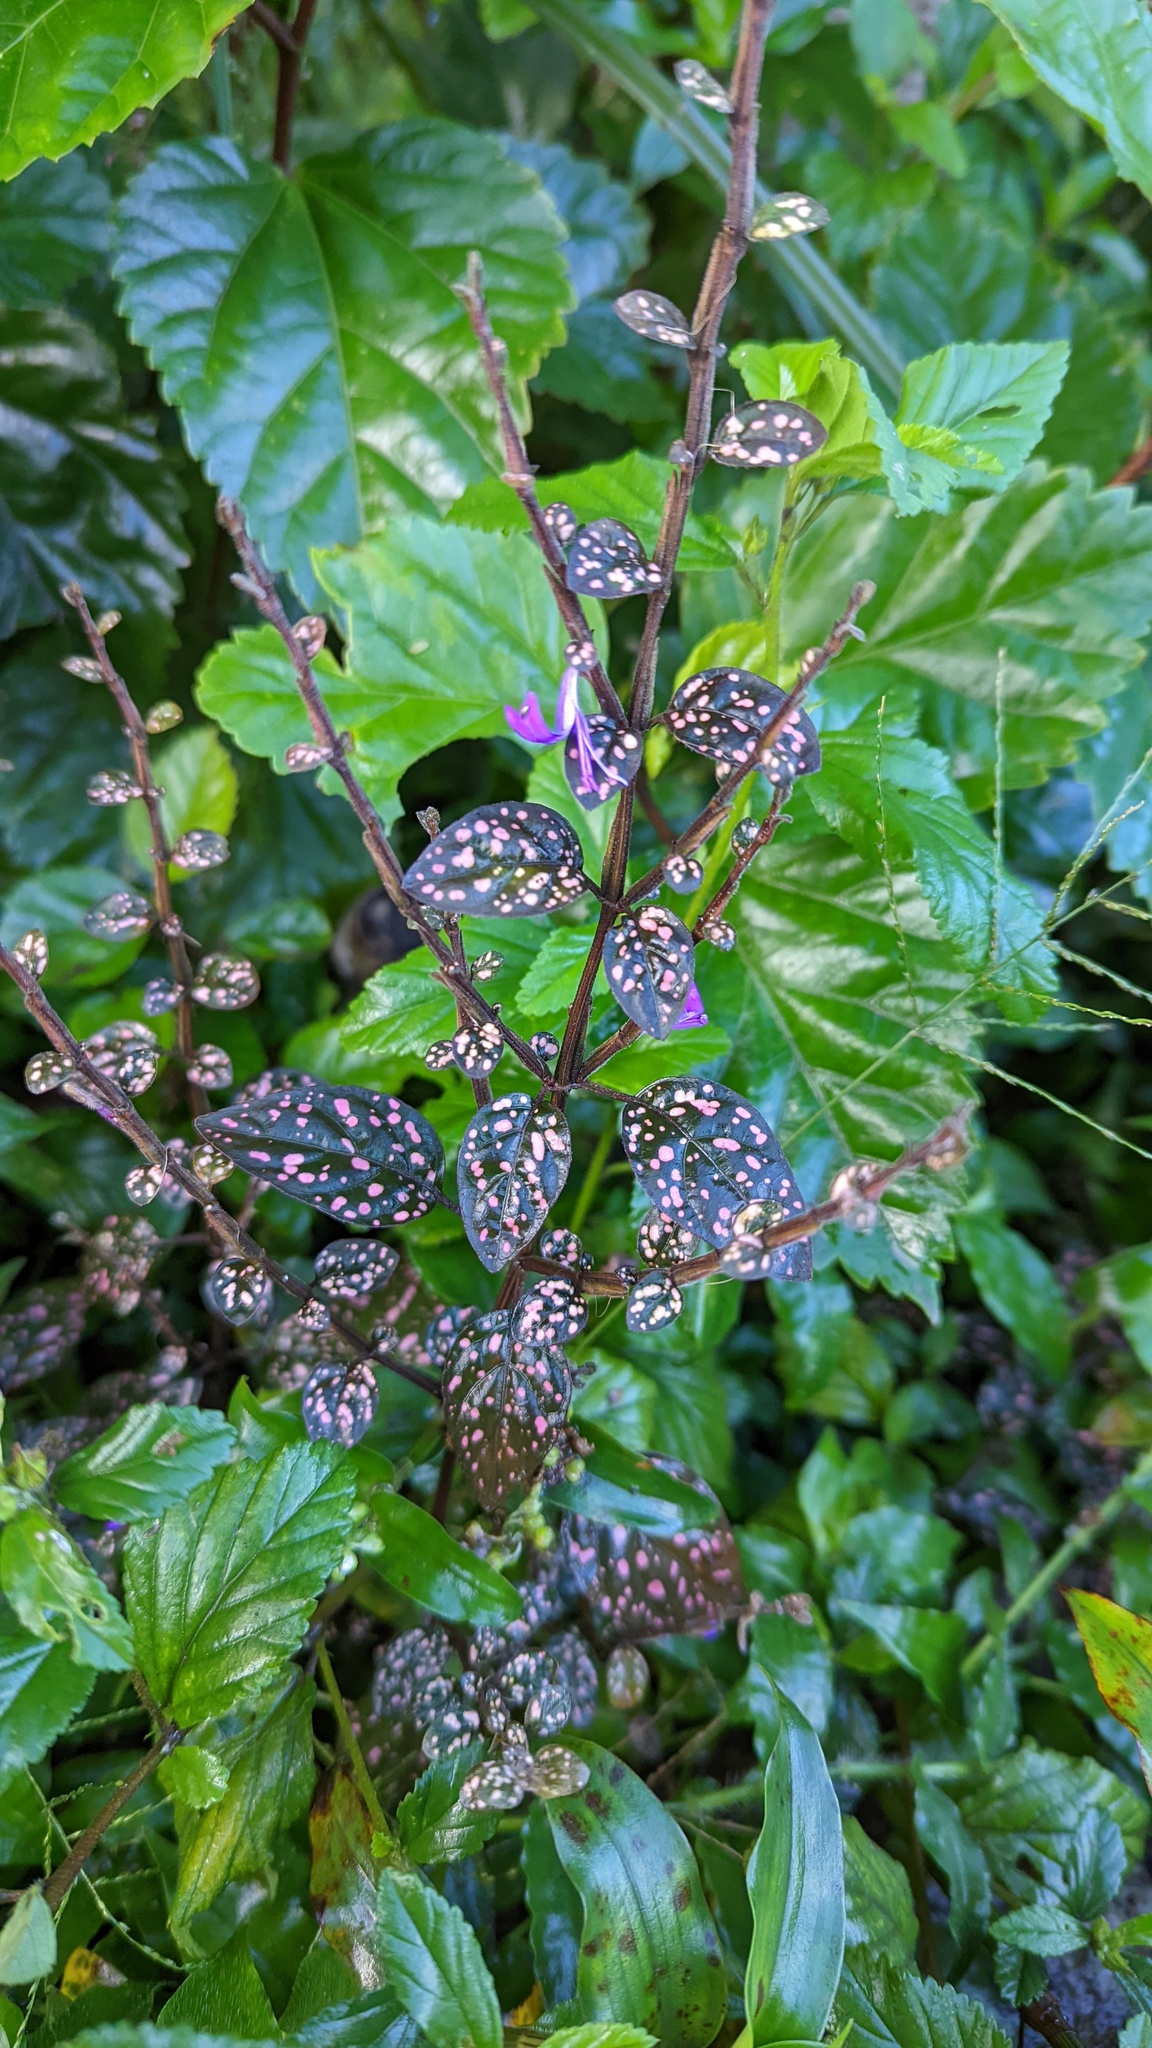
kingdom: Plantae
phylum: Tracheophyta
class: Magnoliopsida
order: Lamiales
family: Acanthaceae
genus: Hypoestes
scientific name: Hypoestes phyllostachya
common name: Polkadot-plant
